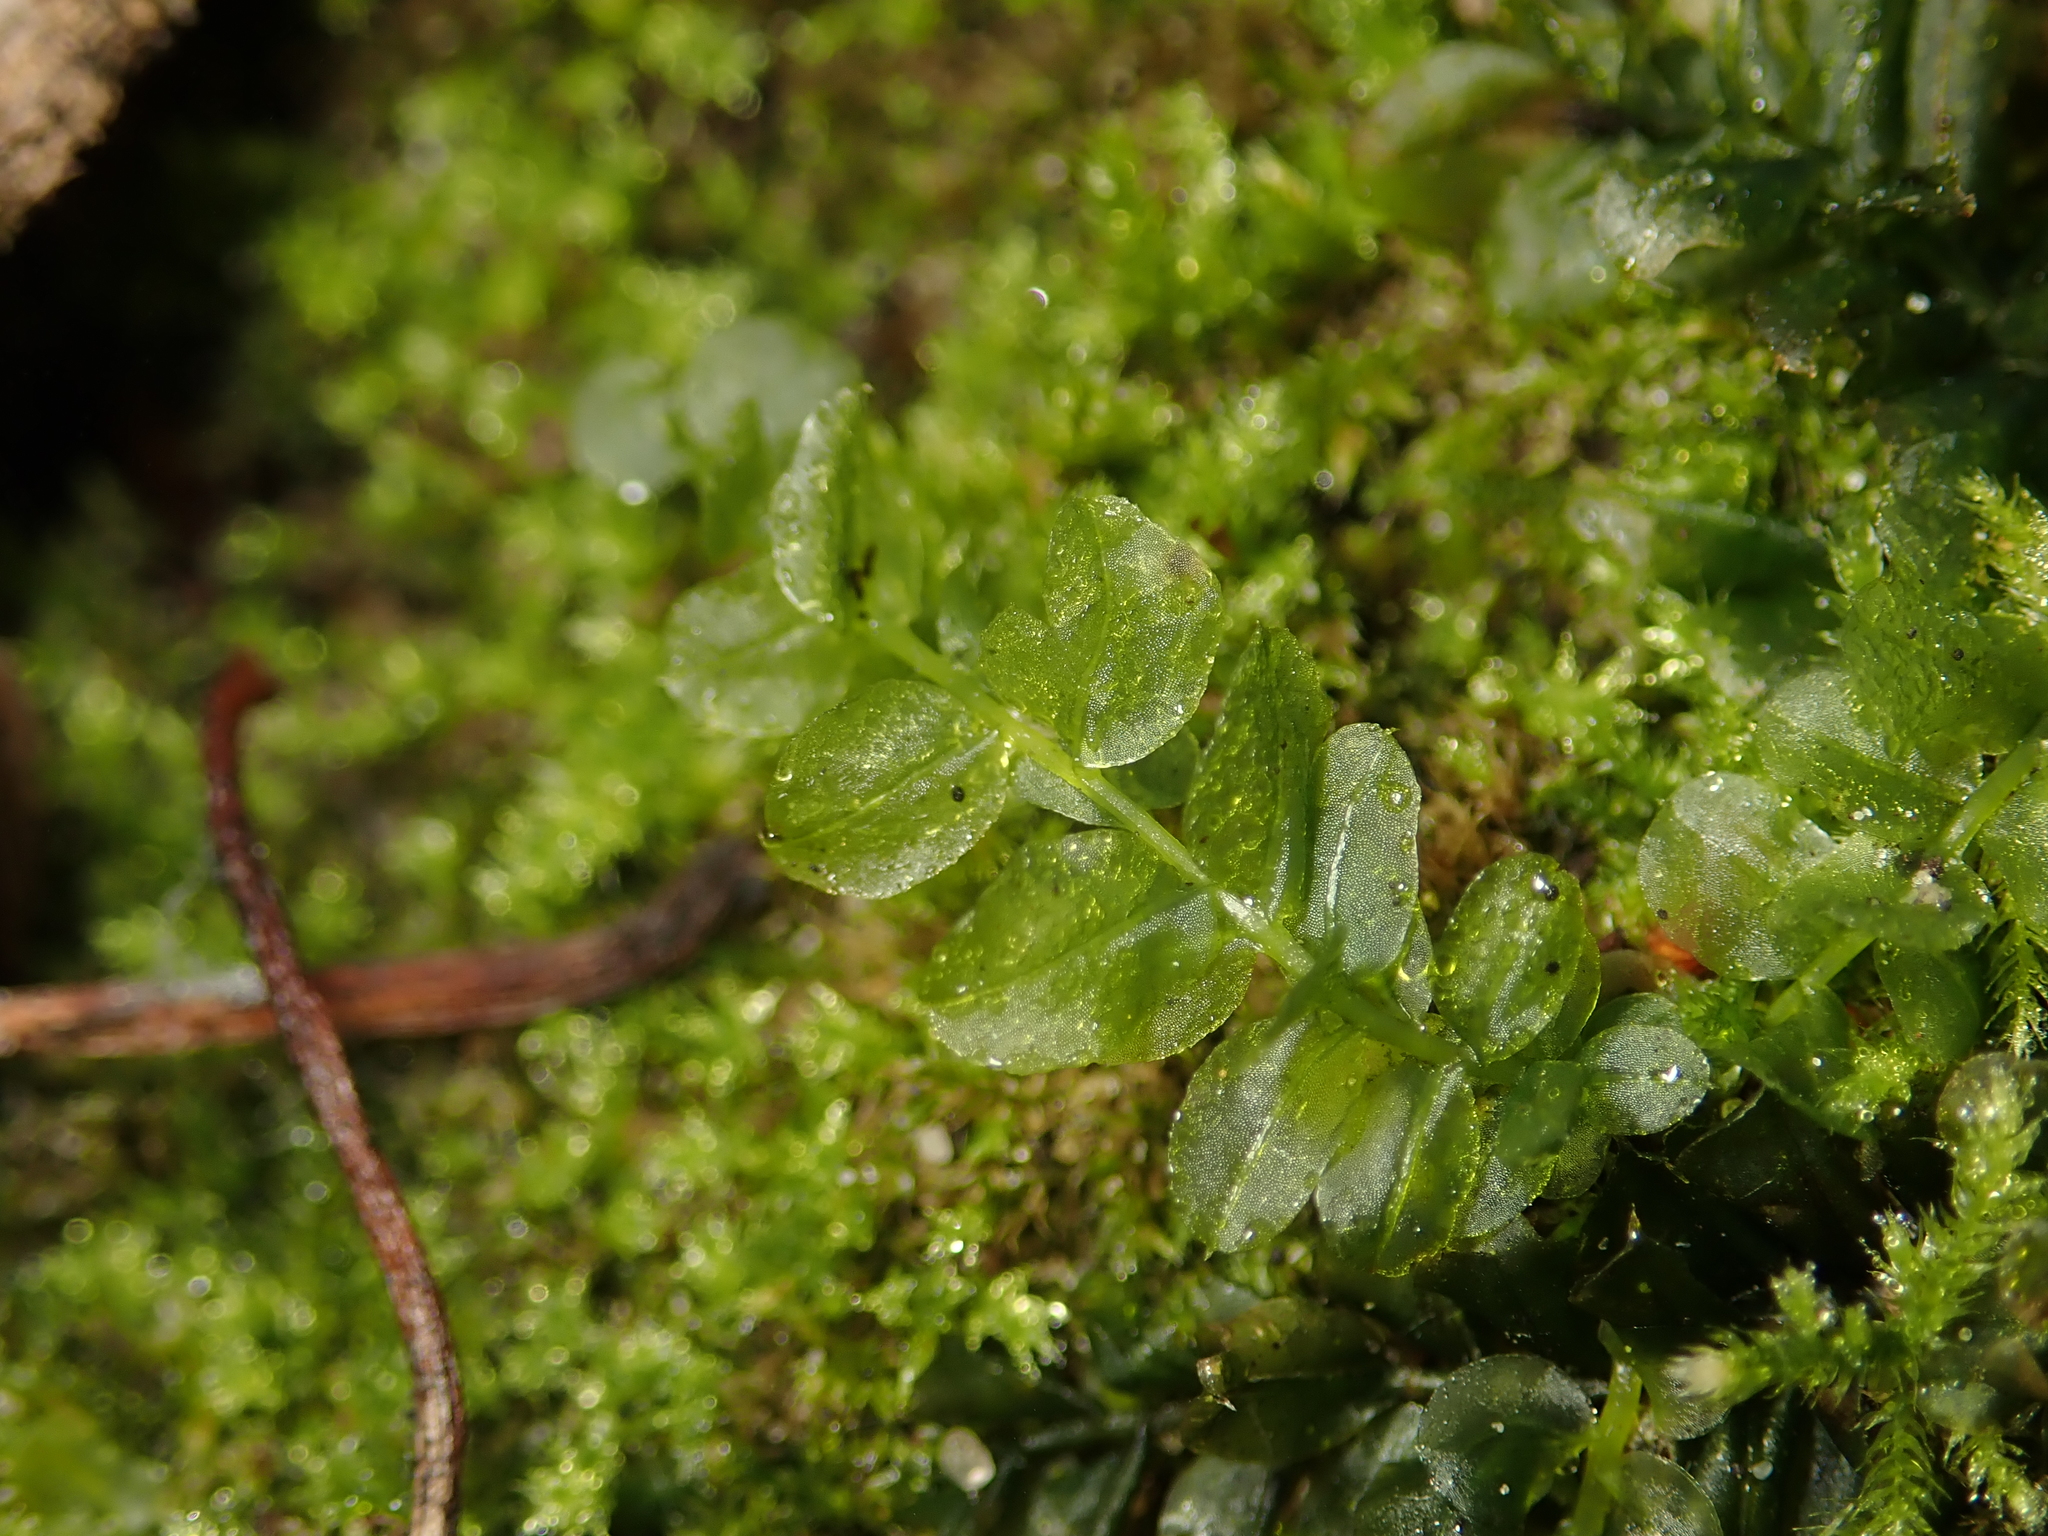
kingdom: Plantae
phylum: Bryophyta
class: Bryopsida
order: Bryales
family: Mniaceae
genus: Plagiomnium
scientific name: Plagiomnium cuspidatum
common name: Woodsy leafy moss
